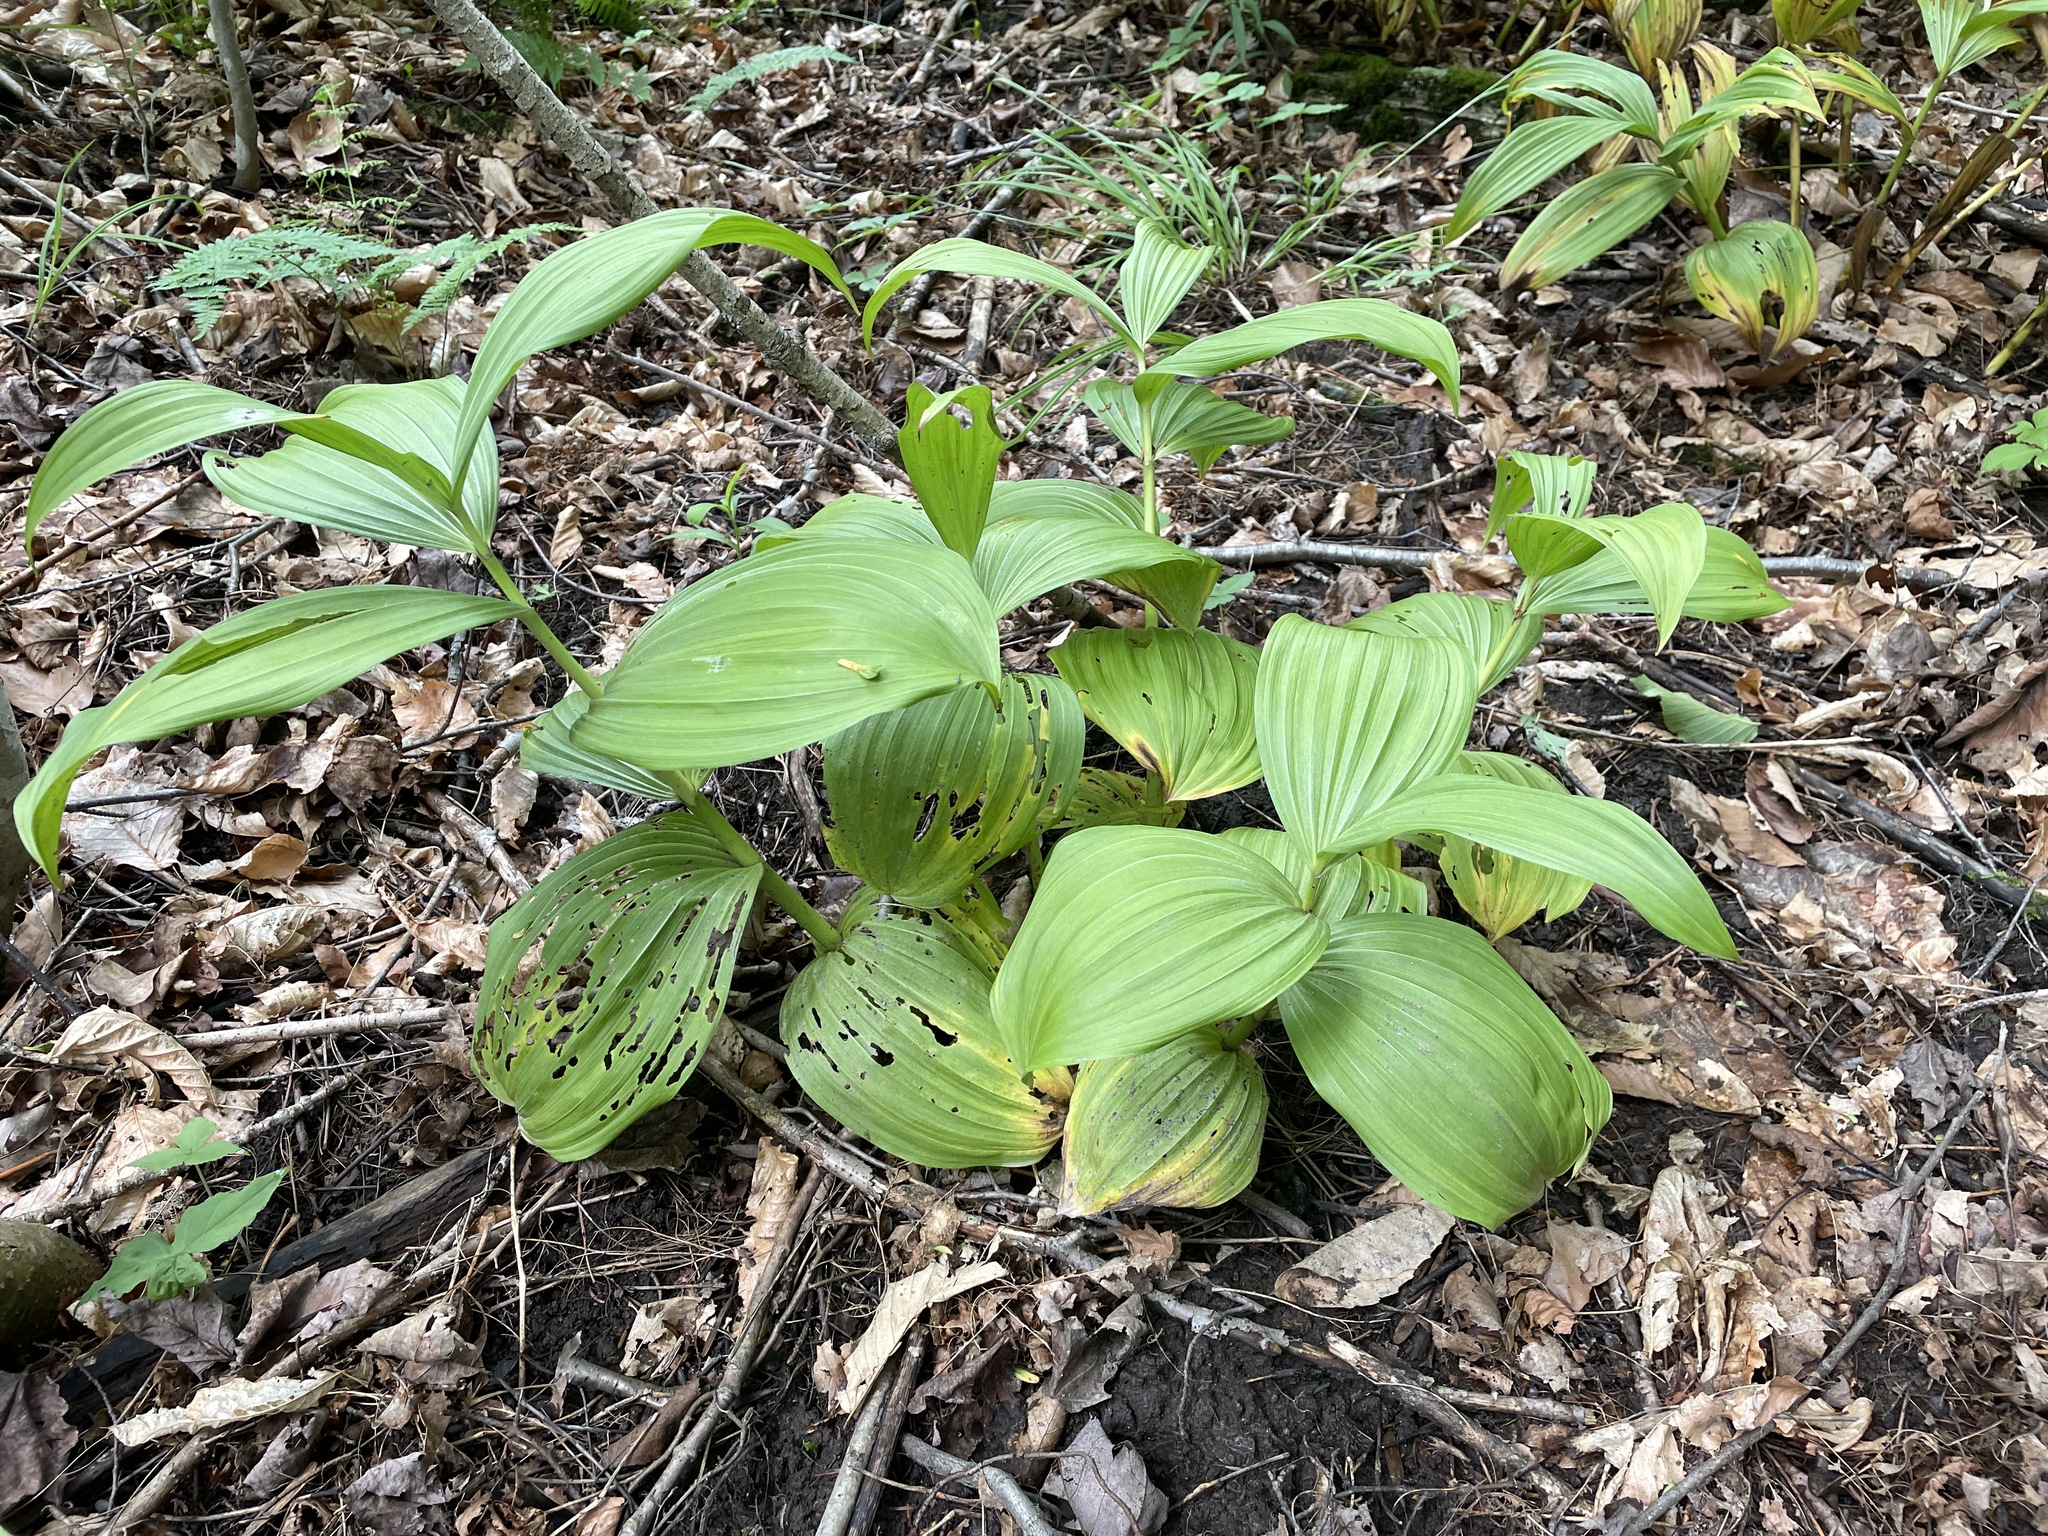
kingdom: Plantae
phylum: Tracheophyta
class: Liliopsida
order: Liliales
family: Melanthiaceae
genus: Veratrum
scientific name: Veratrum viride
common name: American false hellebore
